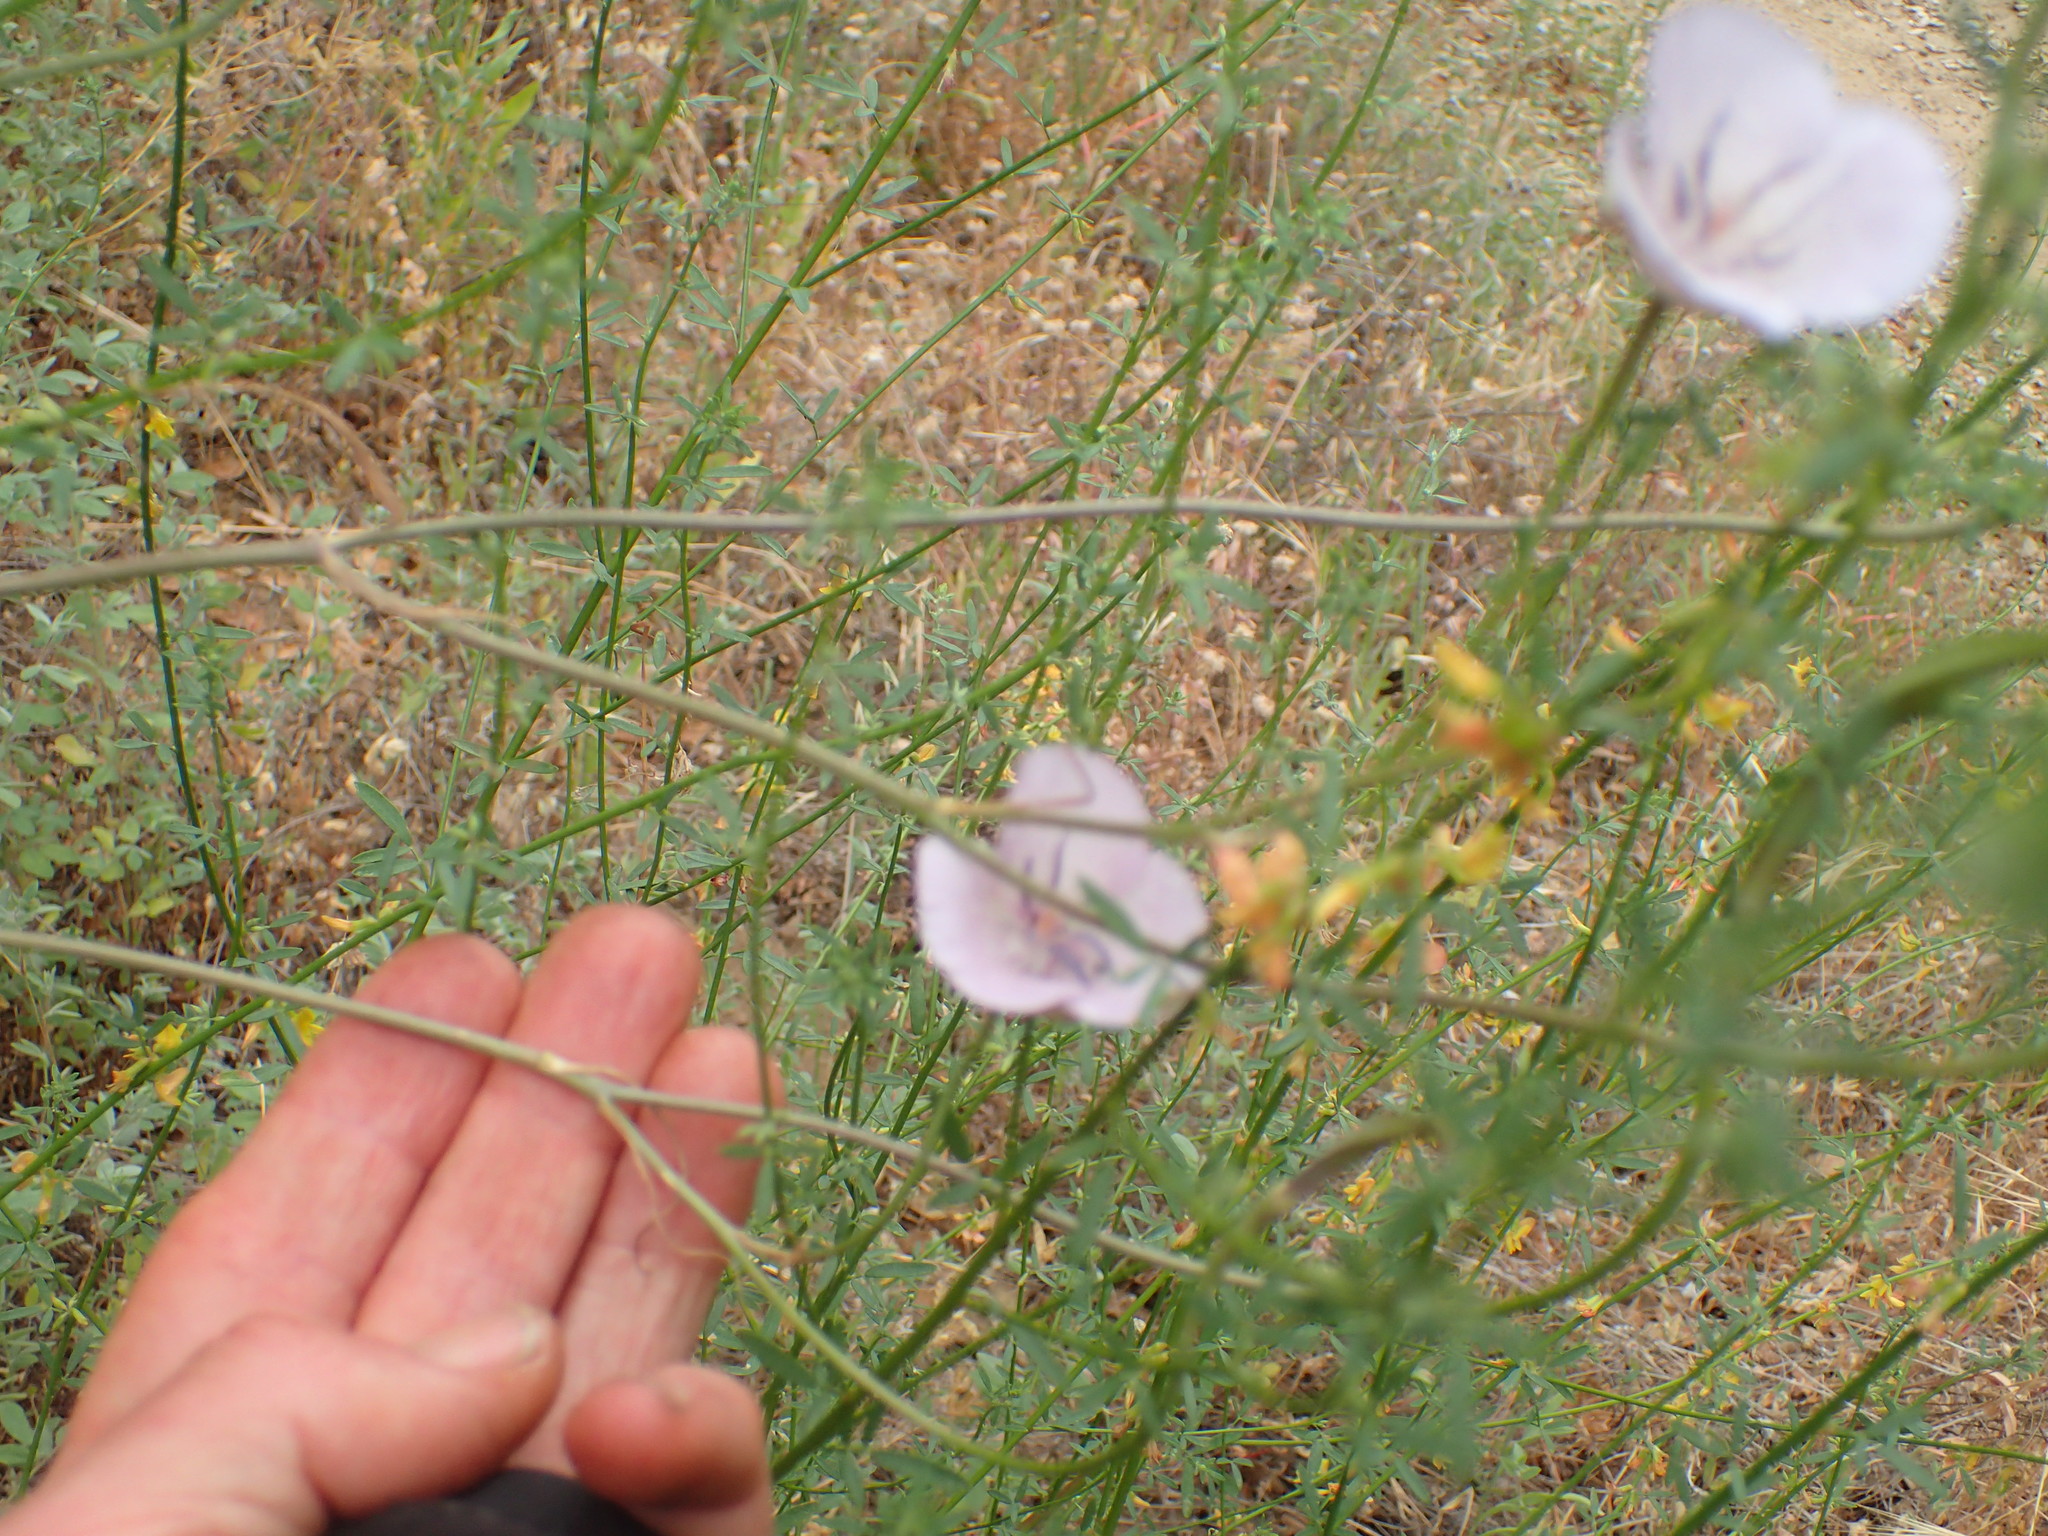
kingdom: Plantae
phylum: Tracheophyta
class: Liliopsida
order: Liliales
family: Liliaceae
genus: Calochortus
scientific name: Calochortus splendens
